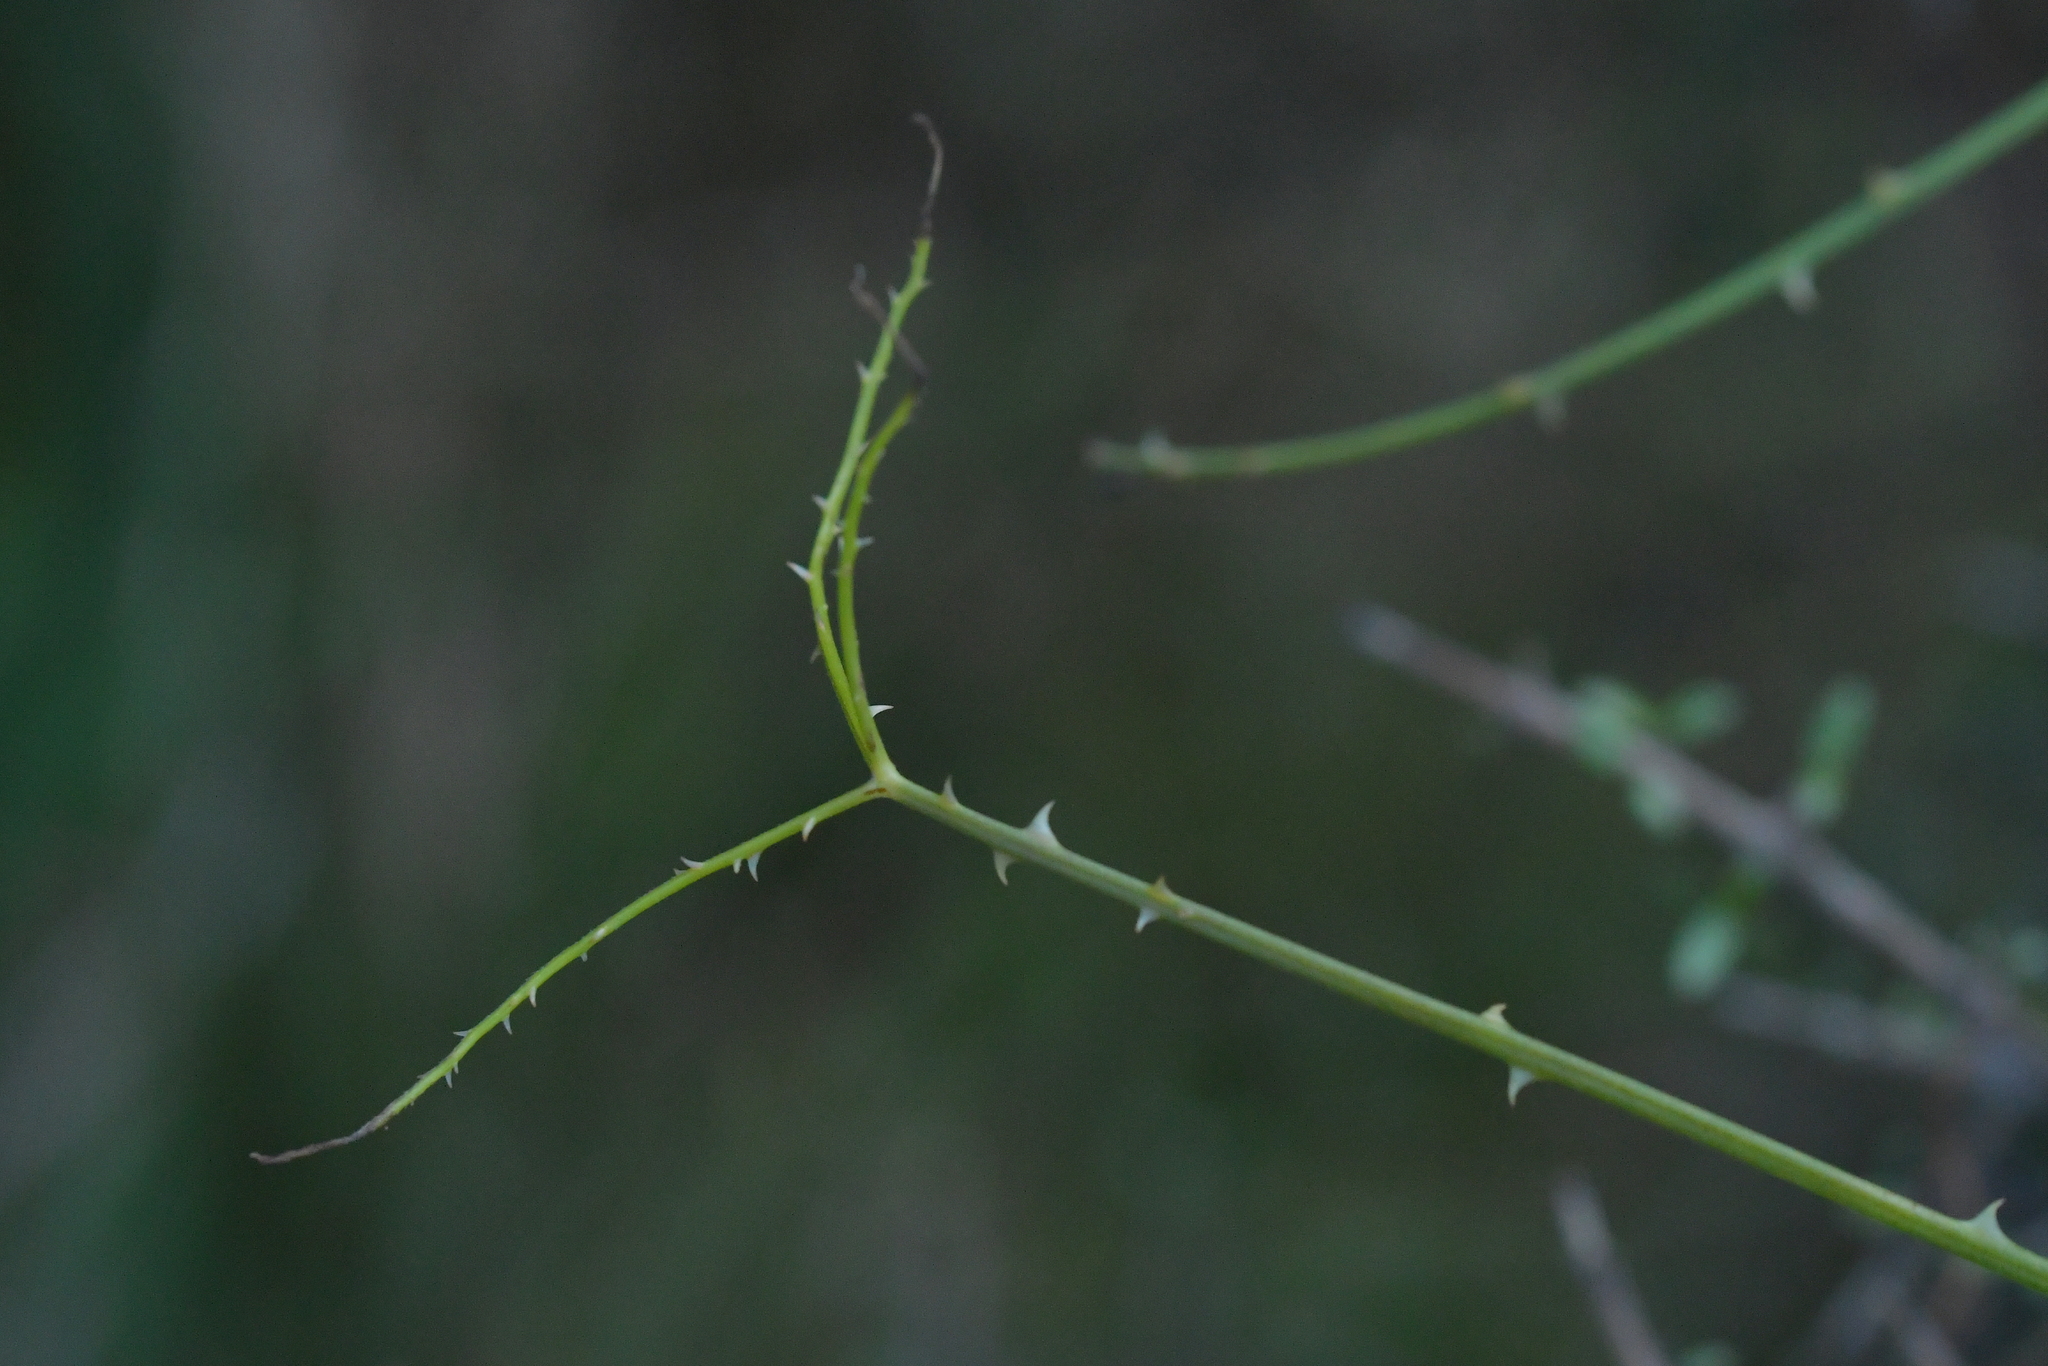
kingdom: Plantae
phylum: Tracheophyta
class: Magnoliopsida
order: Rosales
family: Rosaceae
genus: Rubus
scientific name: Rubus squarrosus
